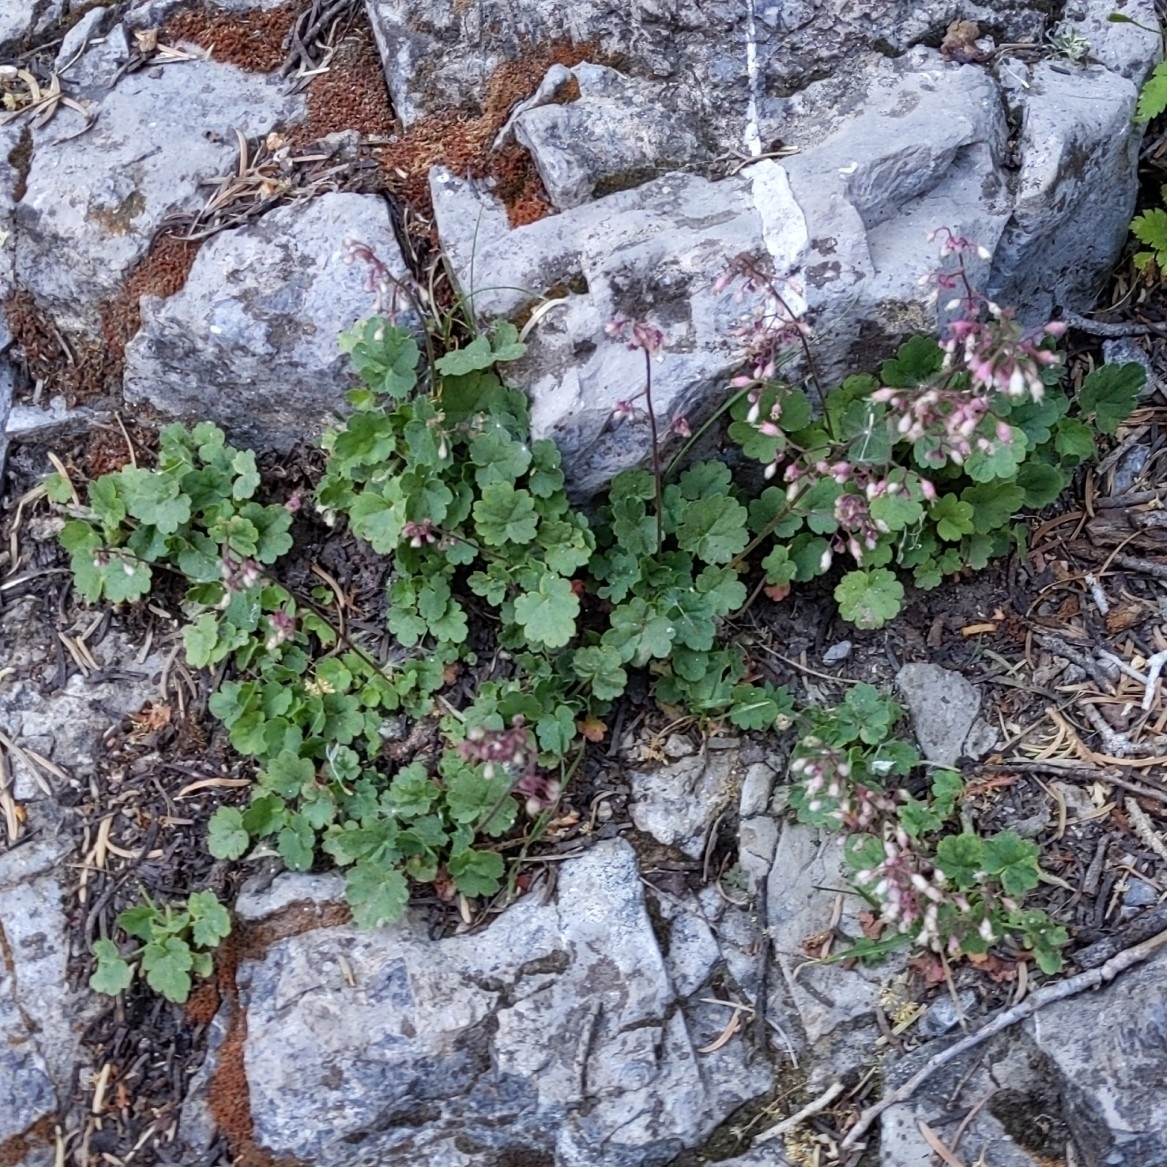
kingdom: Plantae
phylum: Tracheophyta
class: Magnoliopsida
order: Saxifragales
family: Saxifragaceae
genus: Heuchera
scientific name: Heuchera rubescens
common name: Jack-o'the-rocks
